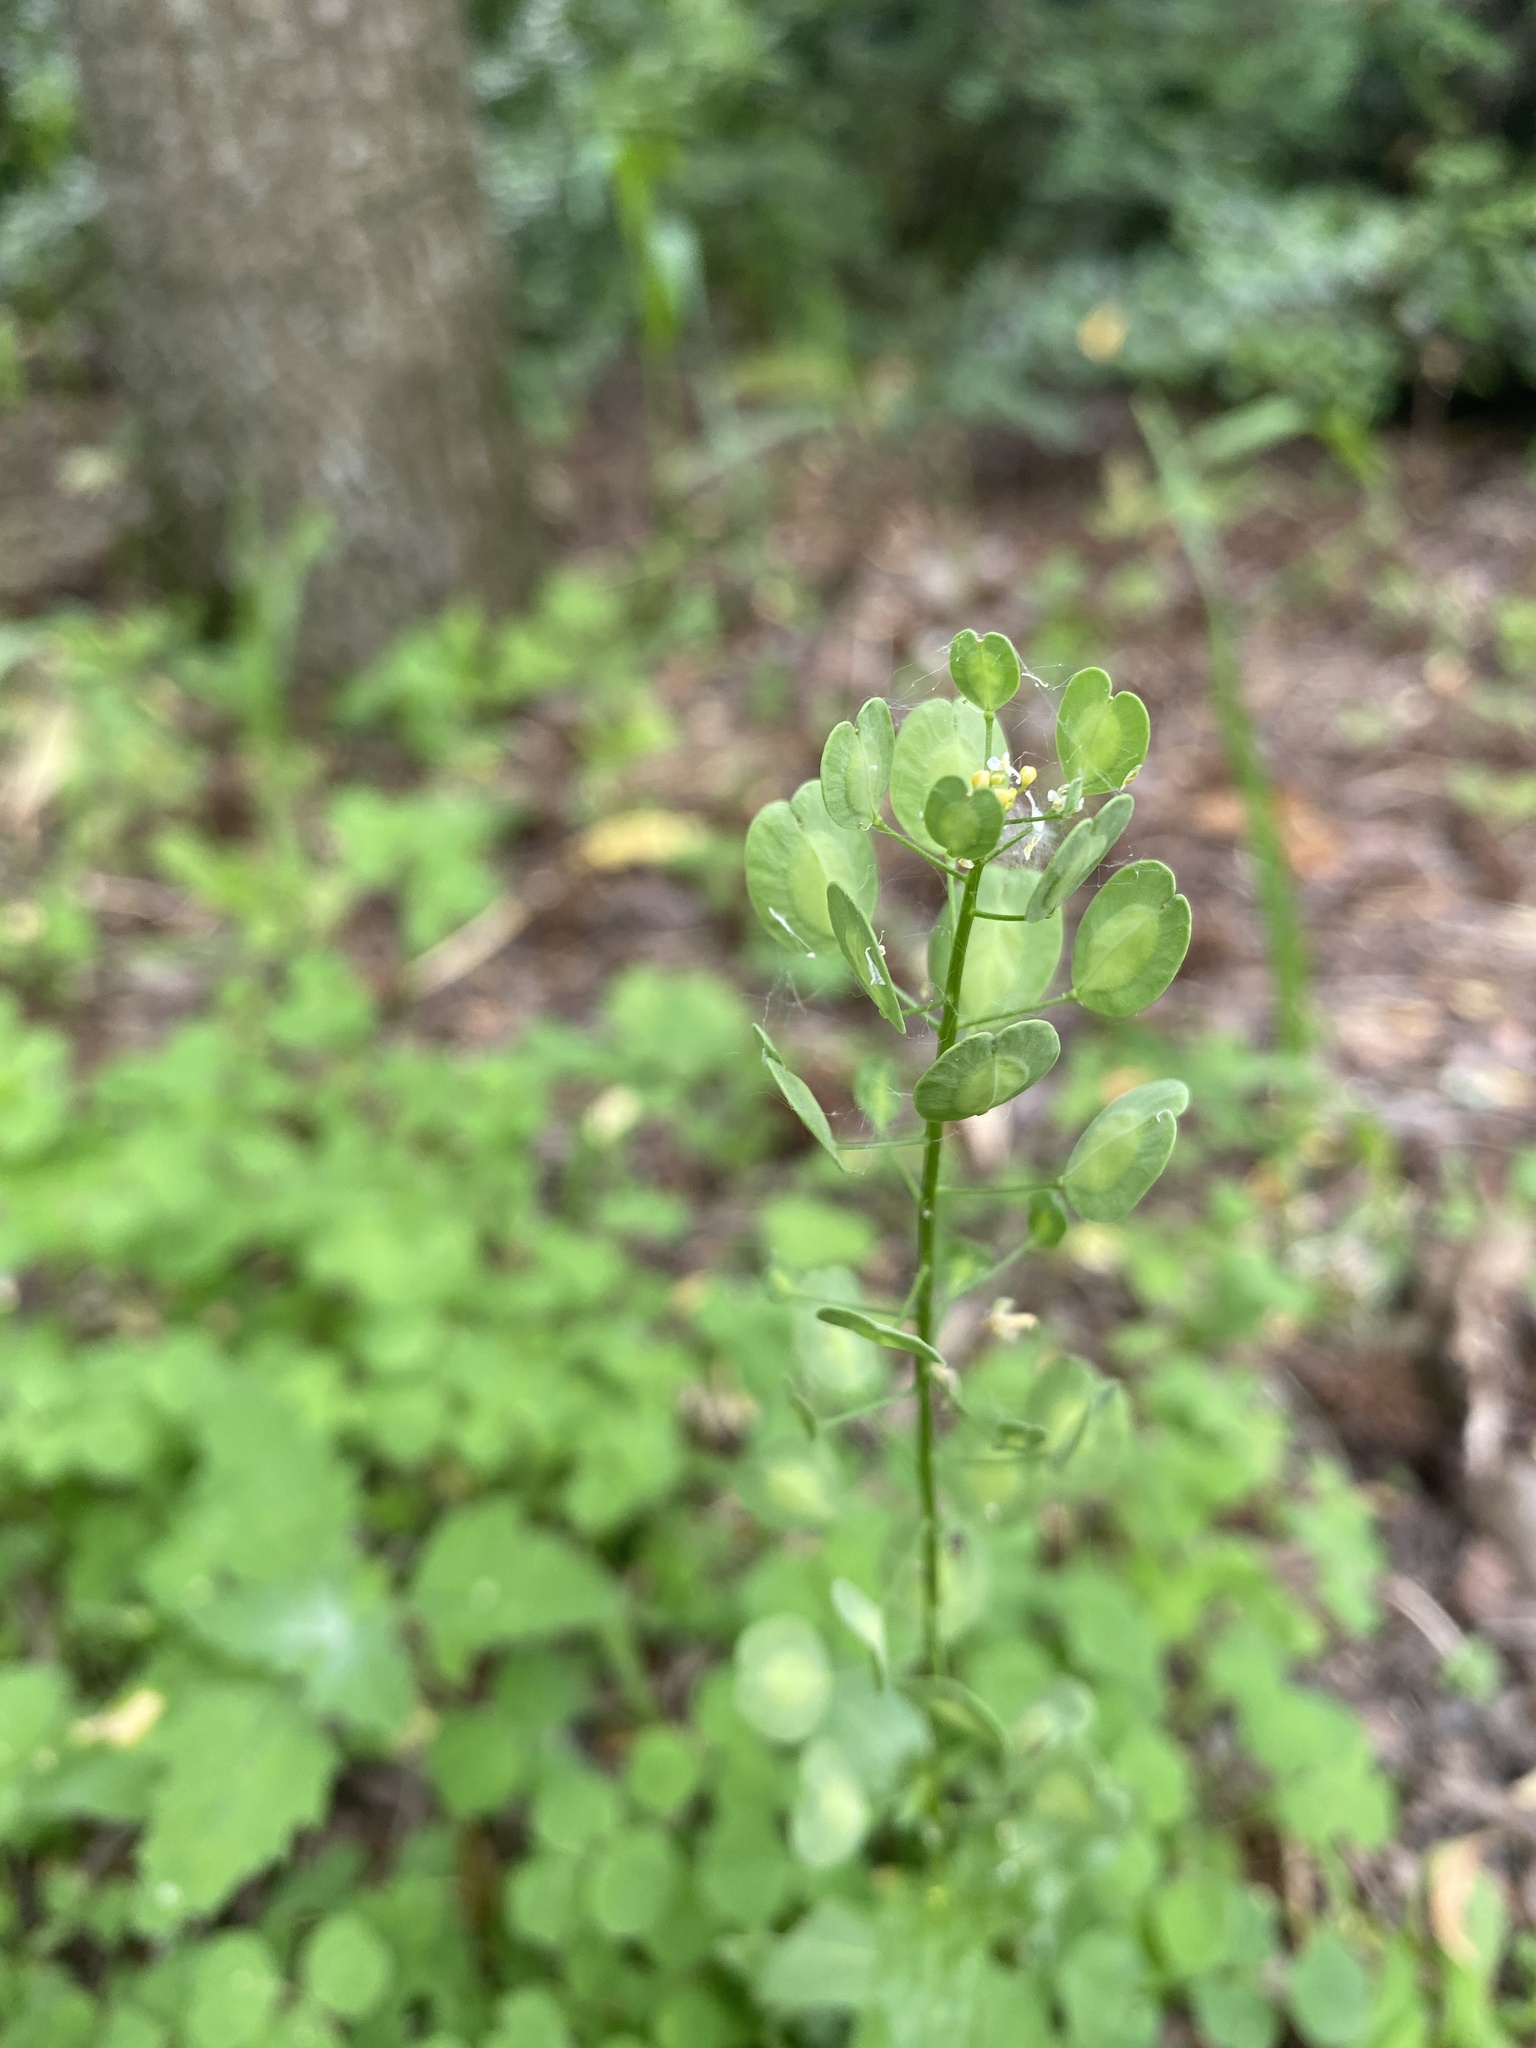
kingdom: Plantae
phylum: Tracheophyta
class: Magnoliopsida
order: Brassicales
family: Brassicaceae
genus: Thlaspi
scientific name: Thlaspi arvense
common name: Field pennycress
